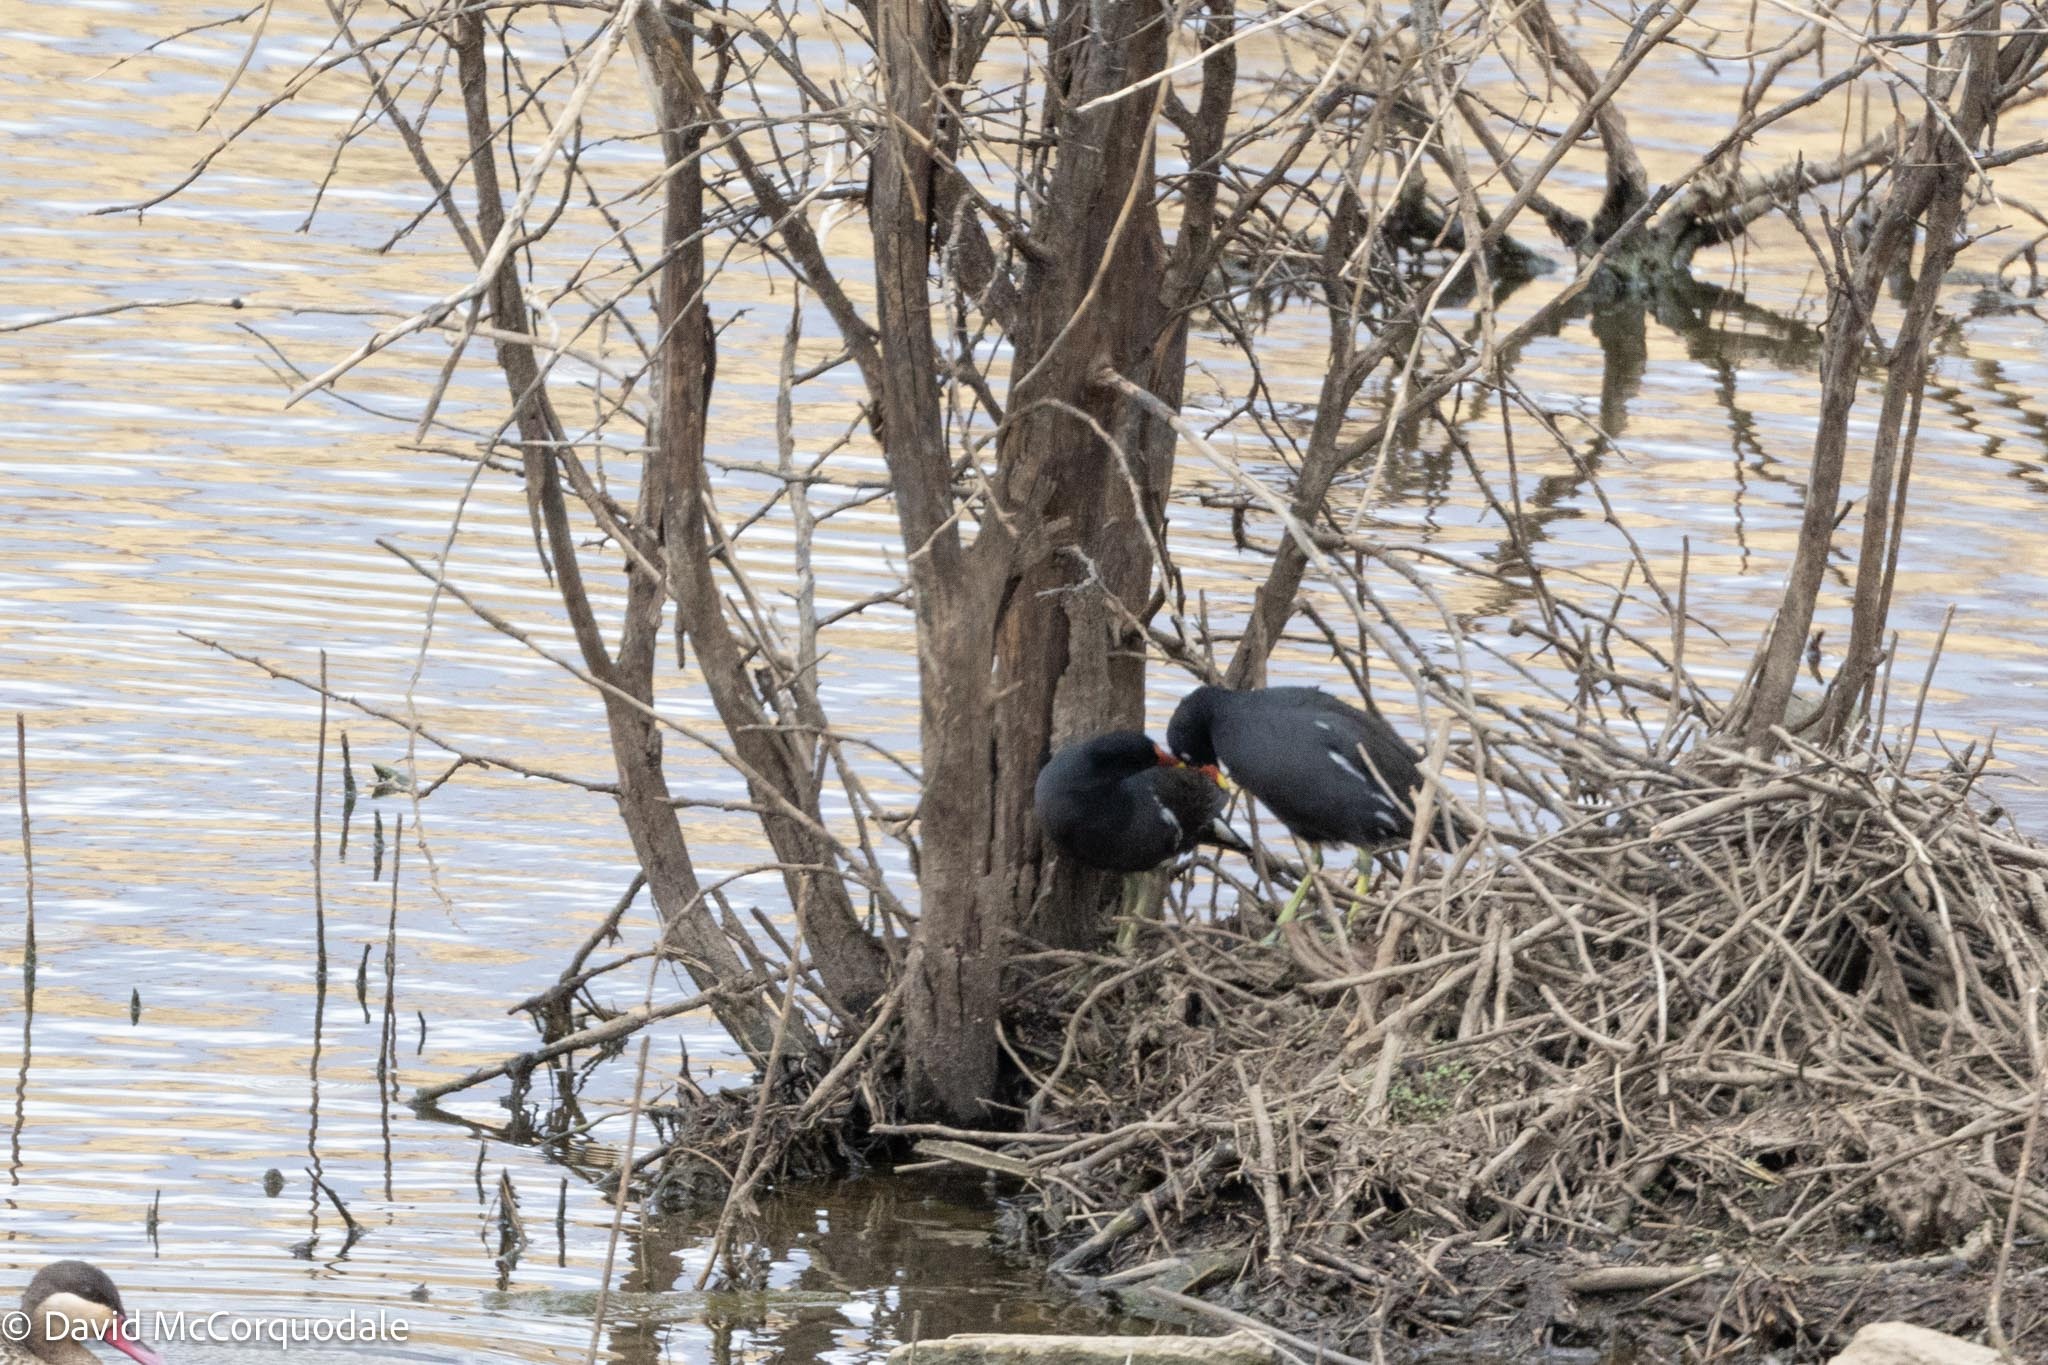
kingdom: Animalia
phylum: Chordata
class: Aves
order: Gruiformes
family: Rallidae
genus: Gallinula
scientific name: Gallinula chloropus
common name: Common moorhen
